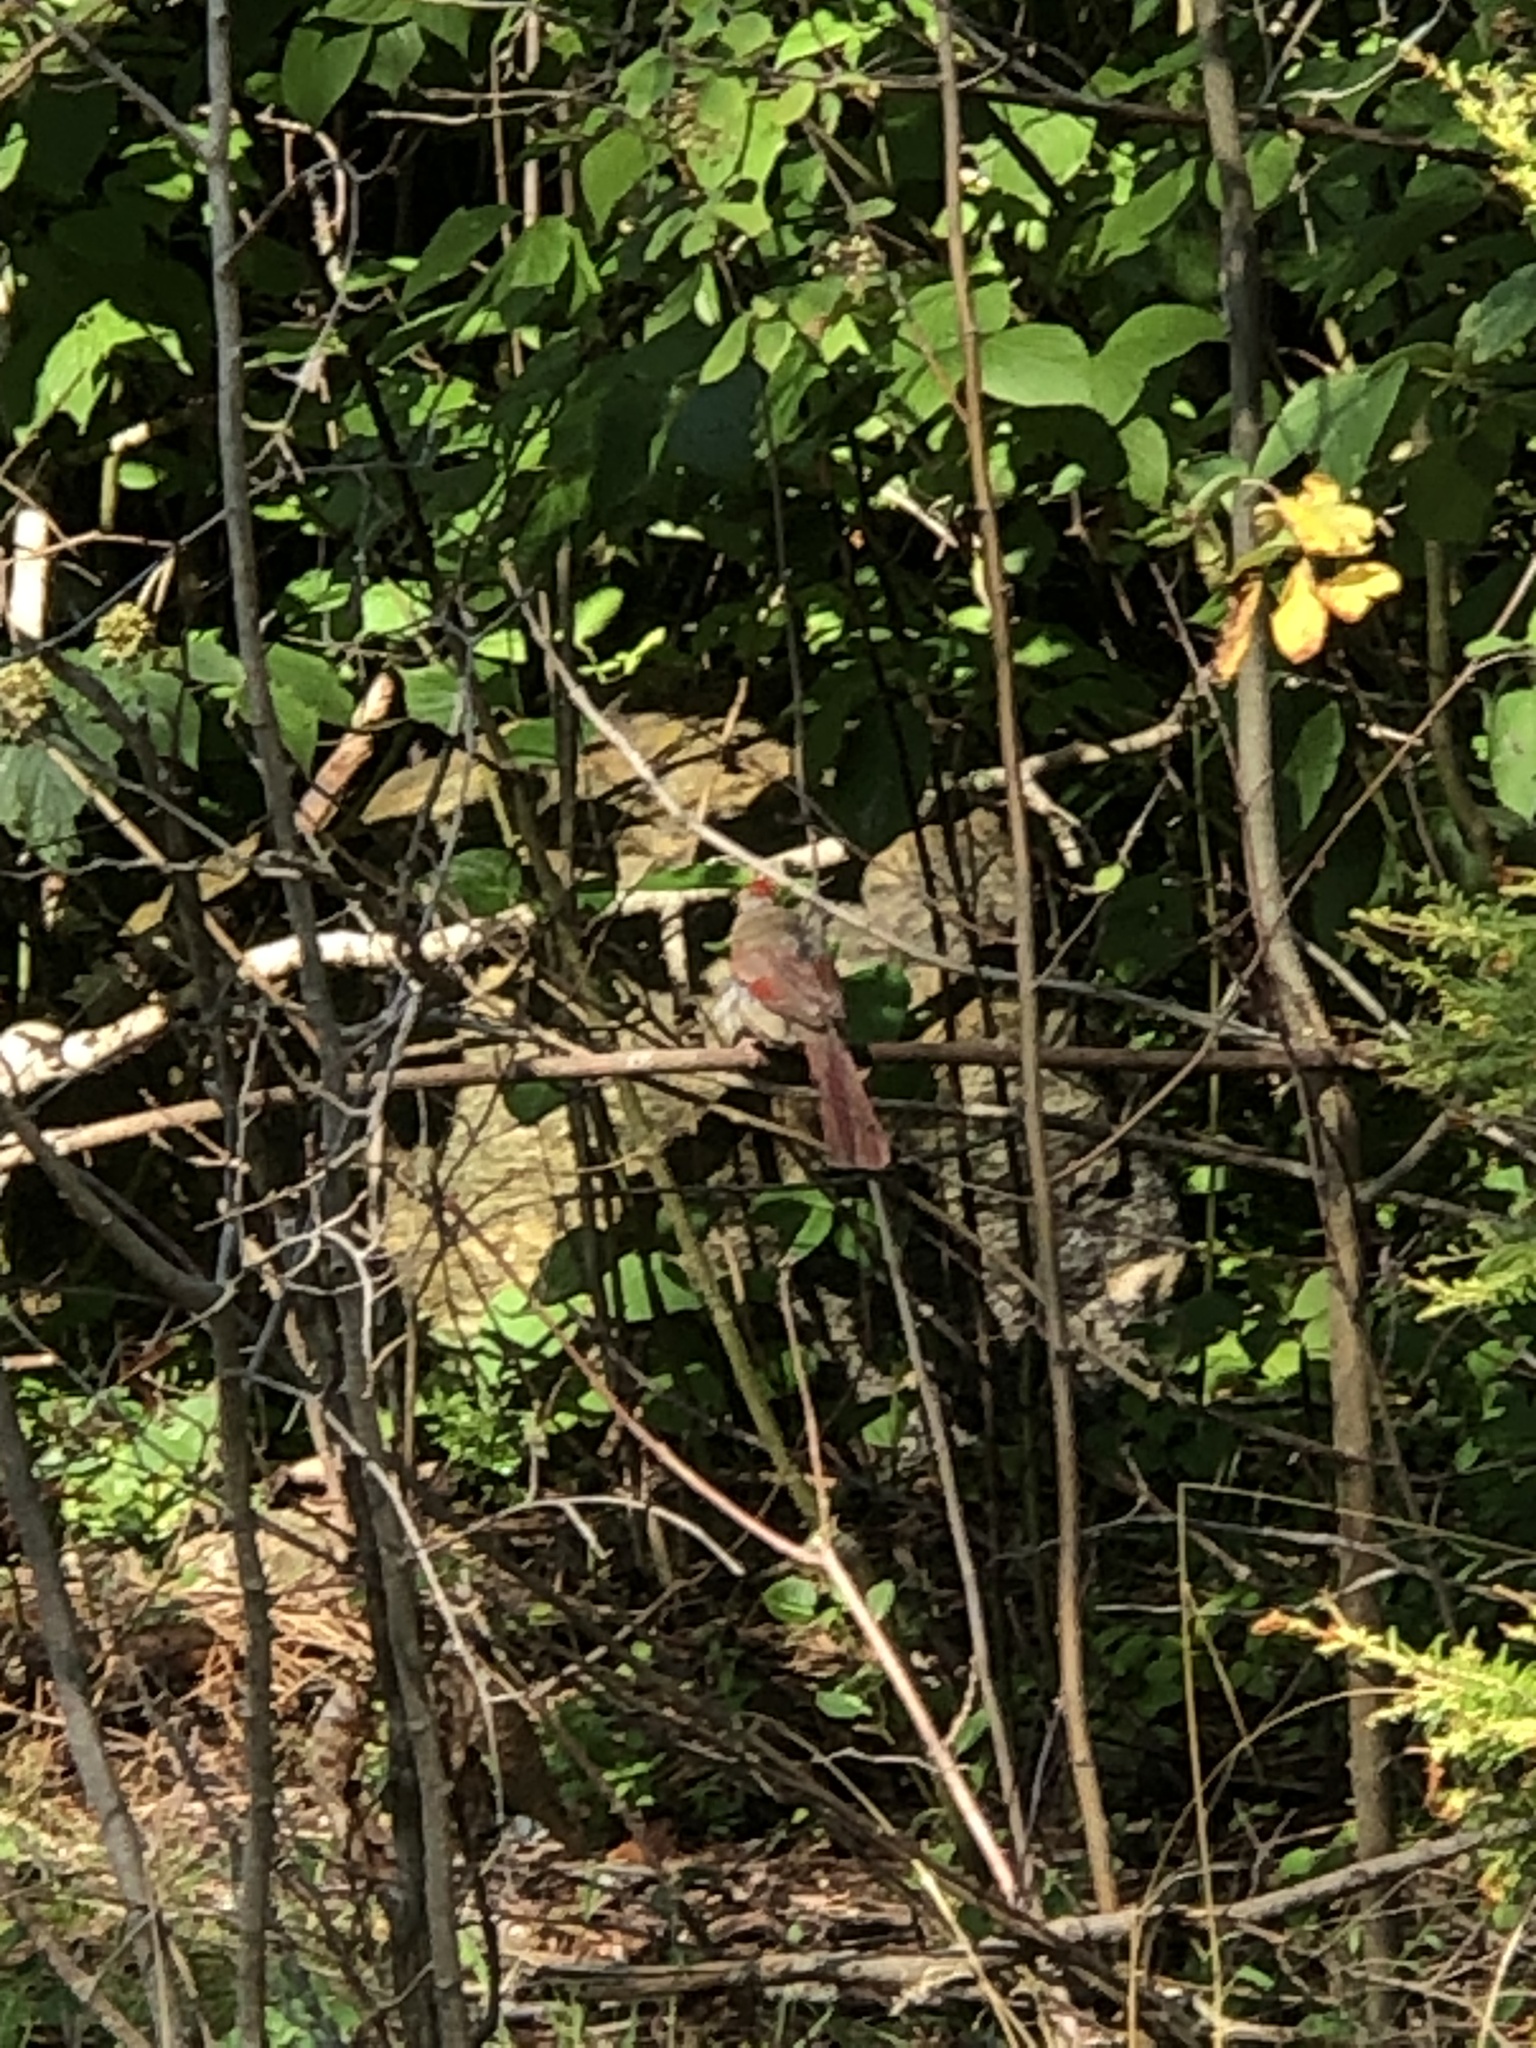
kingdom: Animalia
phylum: Chordata
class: Aves
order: Passeriformes
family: Cardinalidae
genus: Cardinalis
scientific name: Cardinalis cardinalis
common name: Northern cardinal
